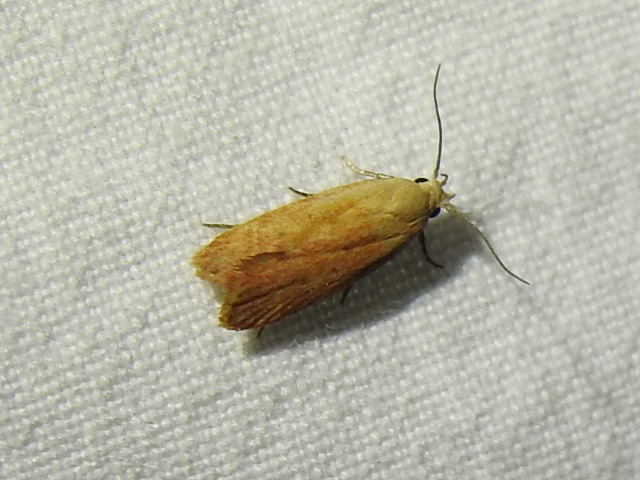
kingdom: Animalia
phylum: Arthropoda
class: Insecta
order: Lepidoptera
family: Gelechiidae
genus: Anacampsis
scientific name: Anacampsis fullonella
